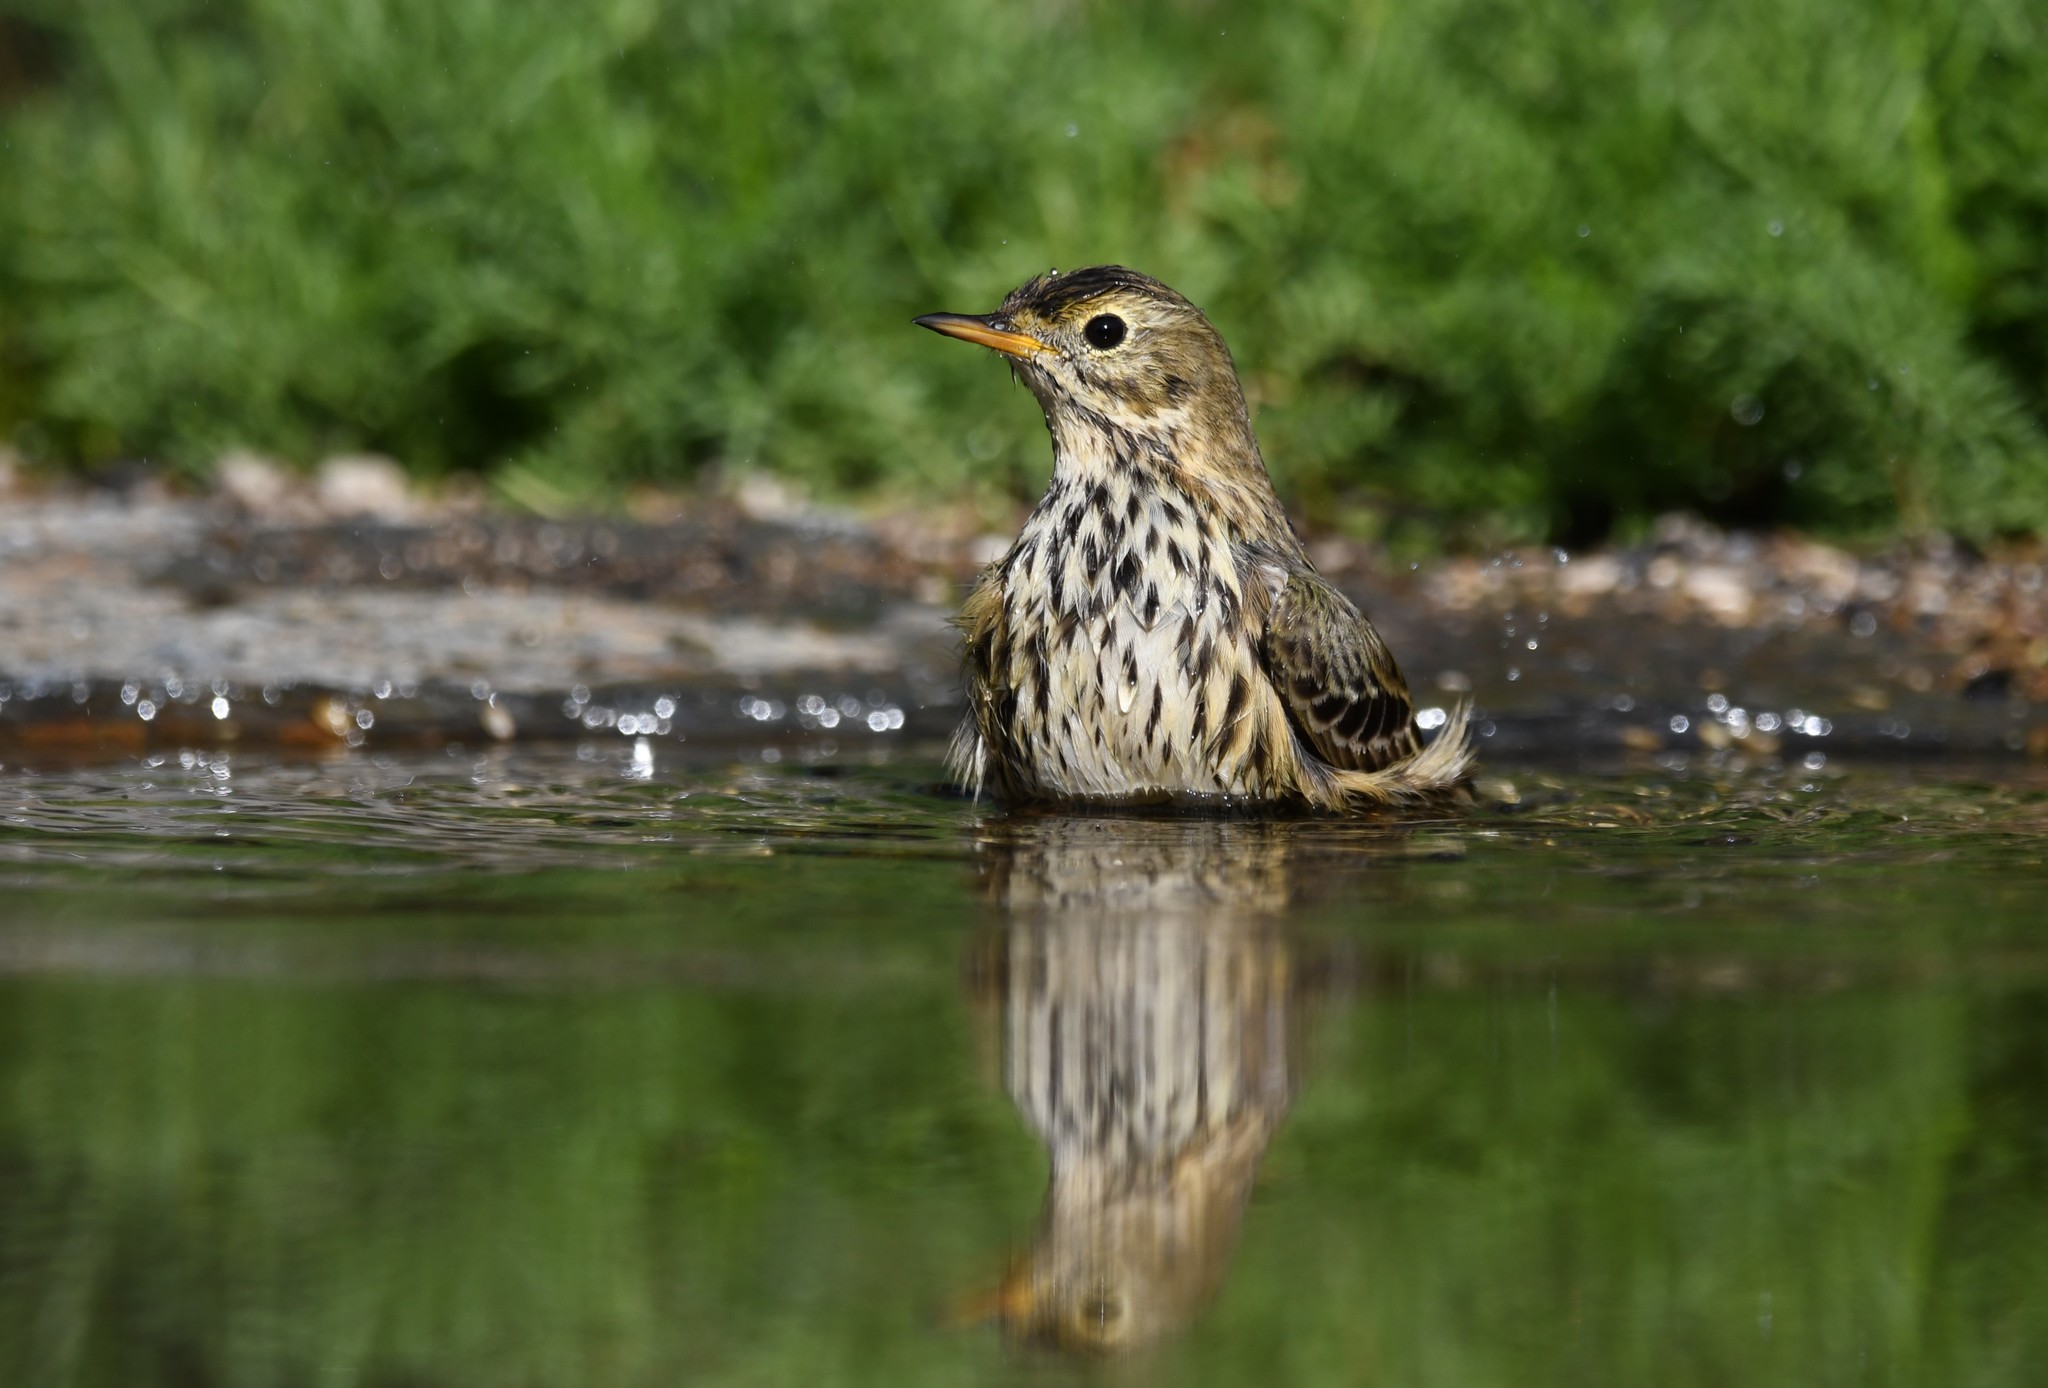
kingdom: Animalia
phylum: Chordata
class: Aves
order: Passeriformes
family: Motacillidae
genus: Anthus
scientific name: Anthus pratensis
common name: Meadow pipit
